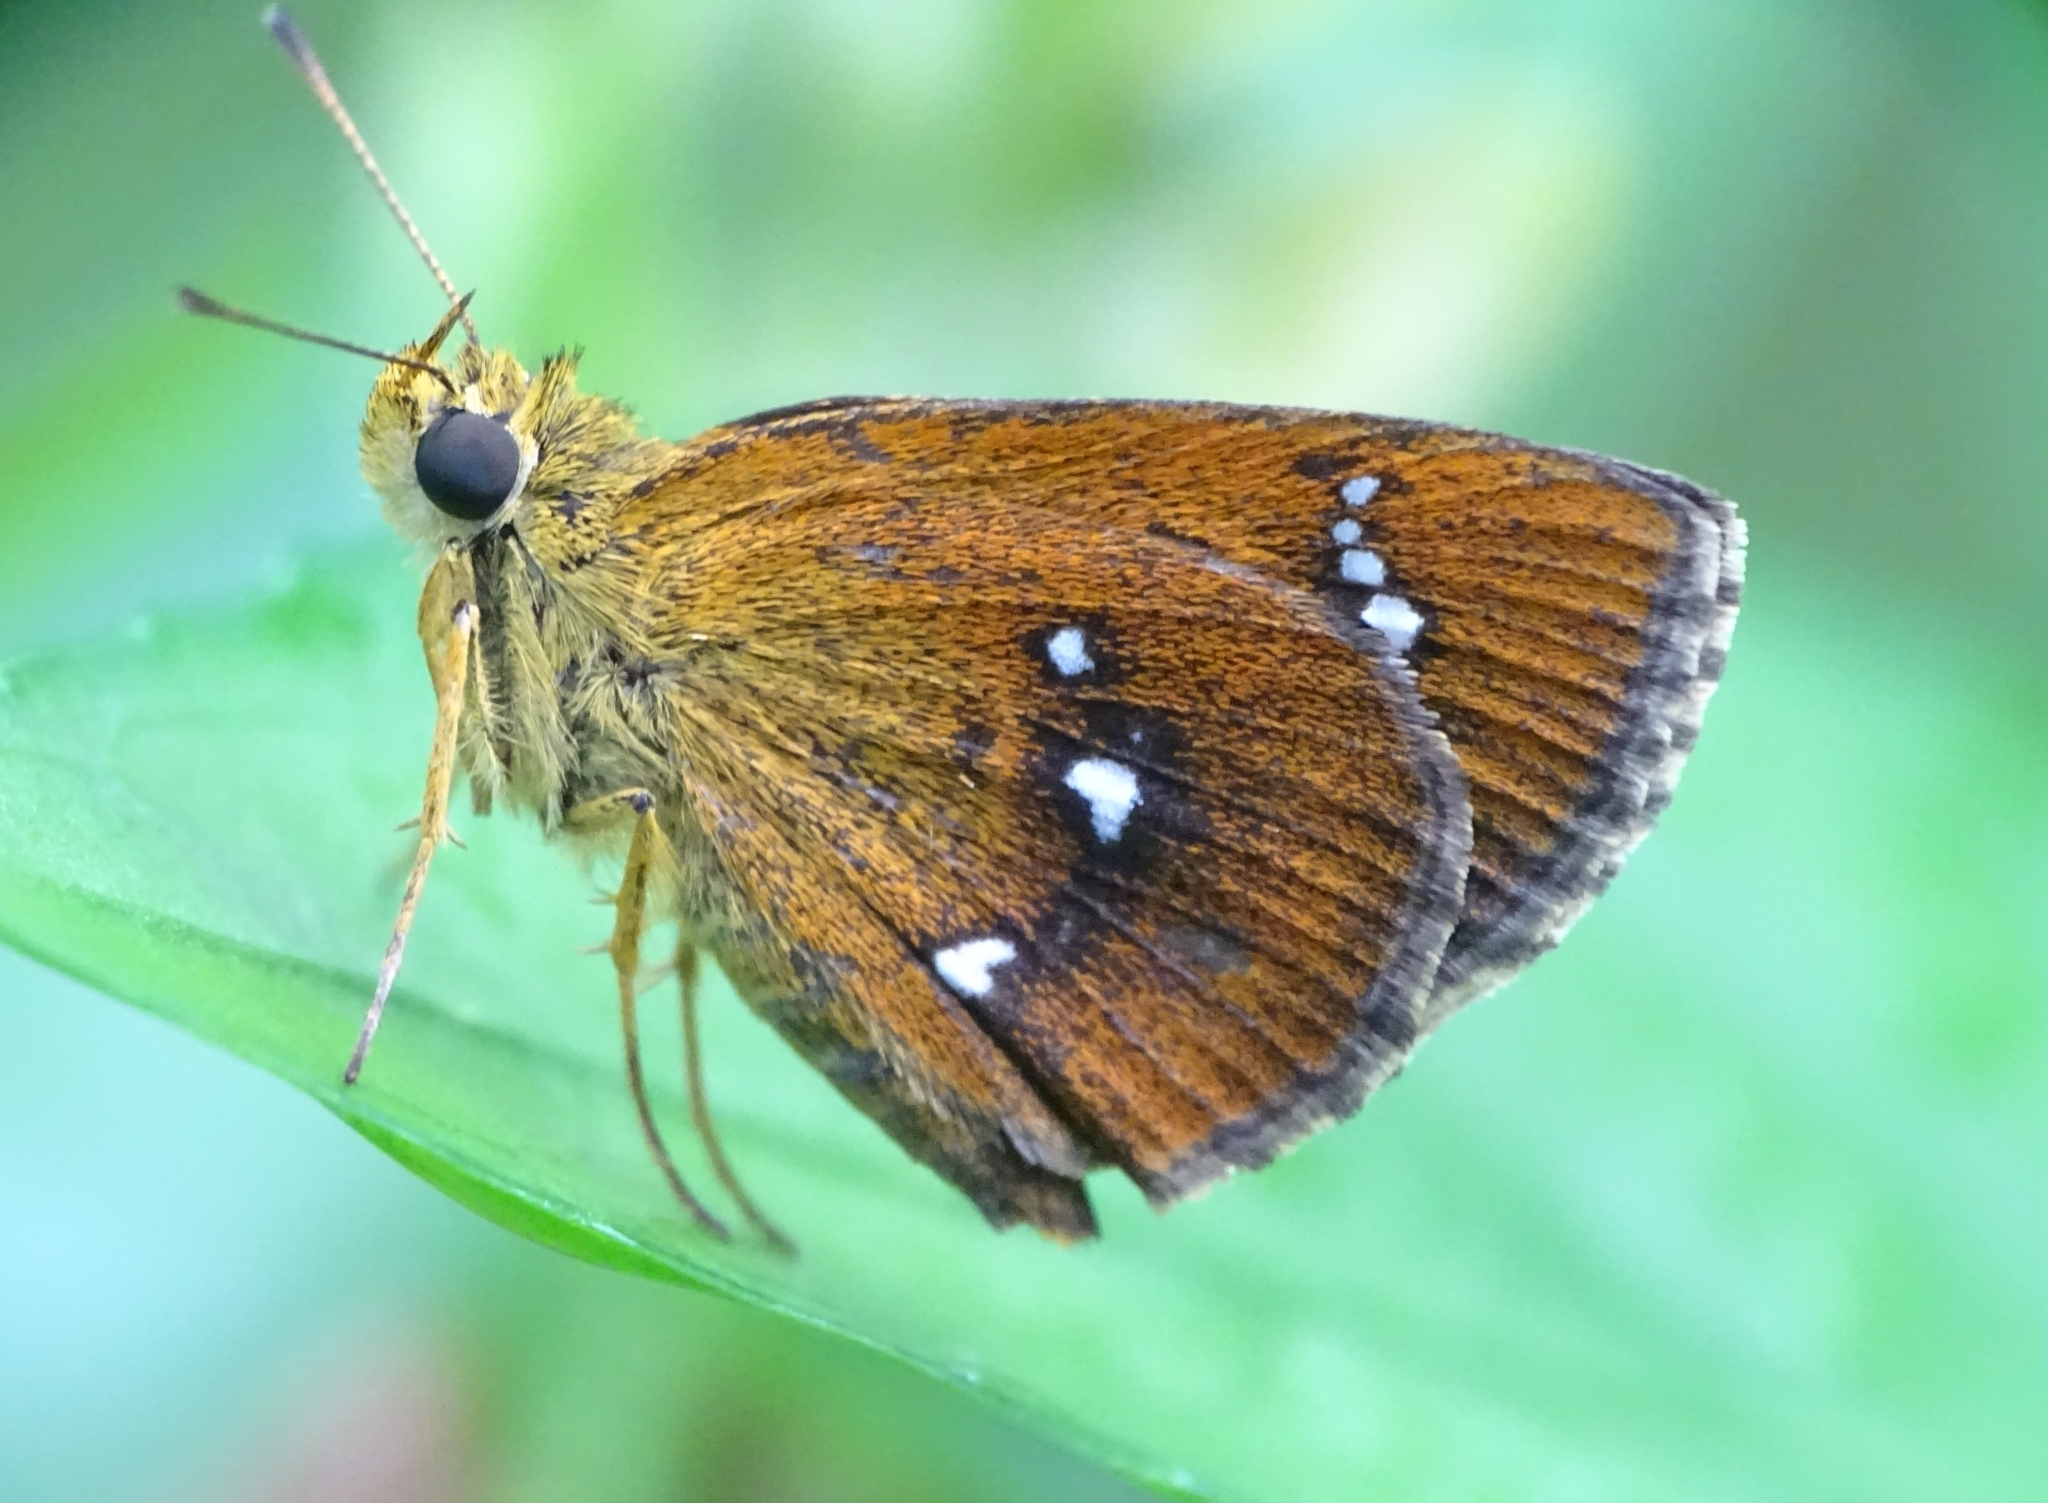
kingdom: Animalia
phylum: Arthropoda
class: Insecta
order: Lepidoptera
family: Hesperiidae
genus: Iambrix
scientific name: Iambrix salsala
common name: Chestnut bob
